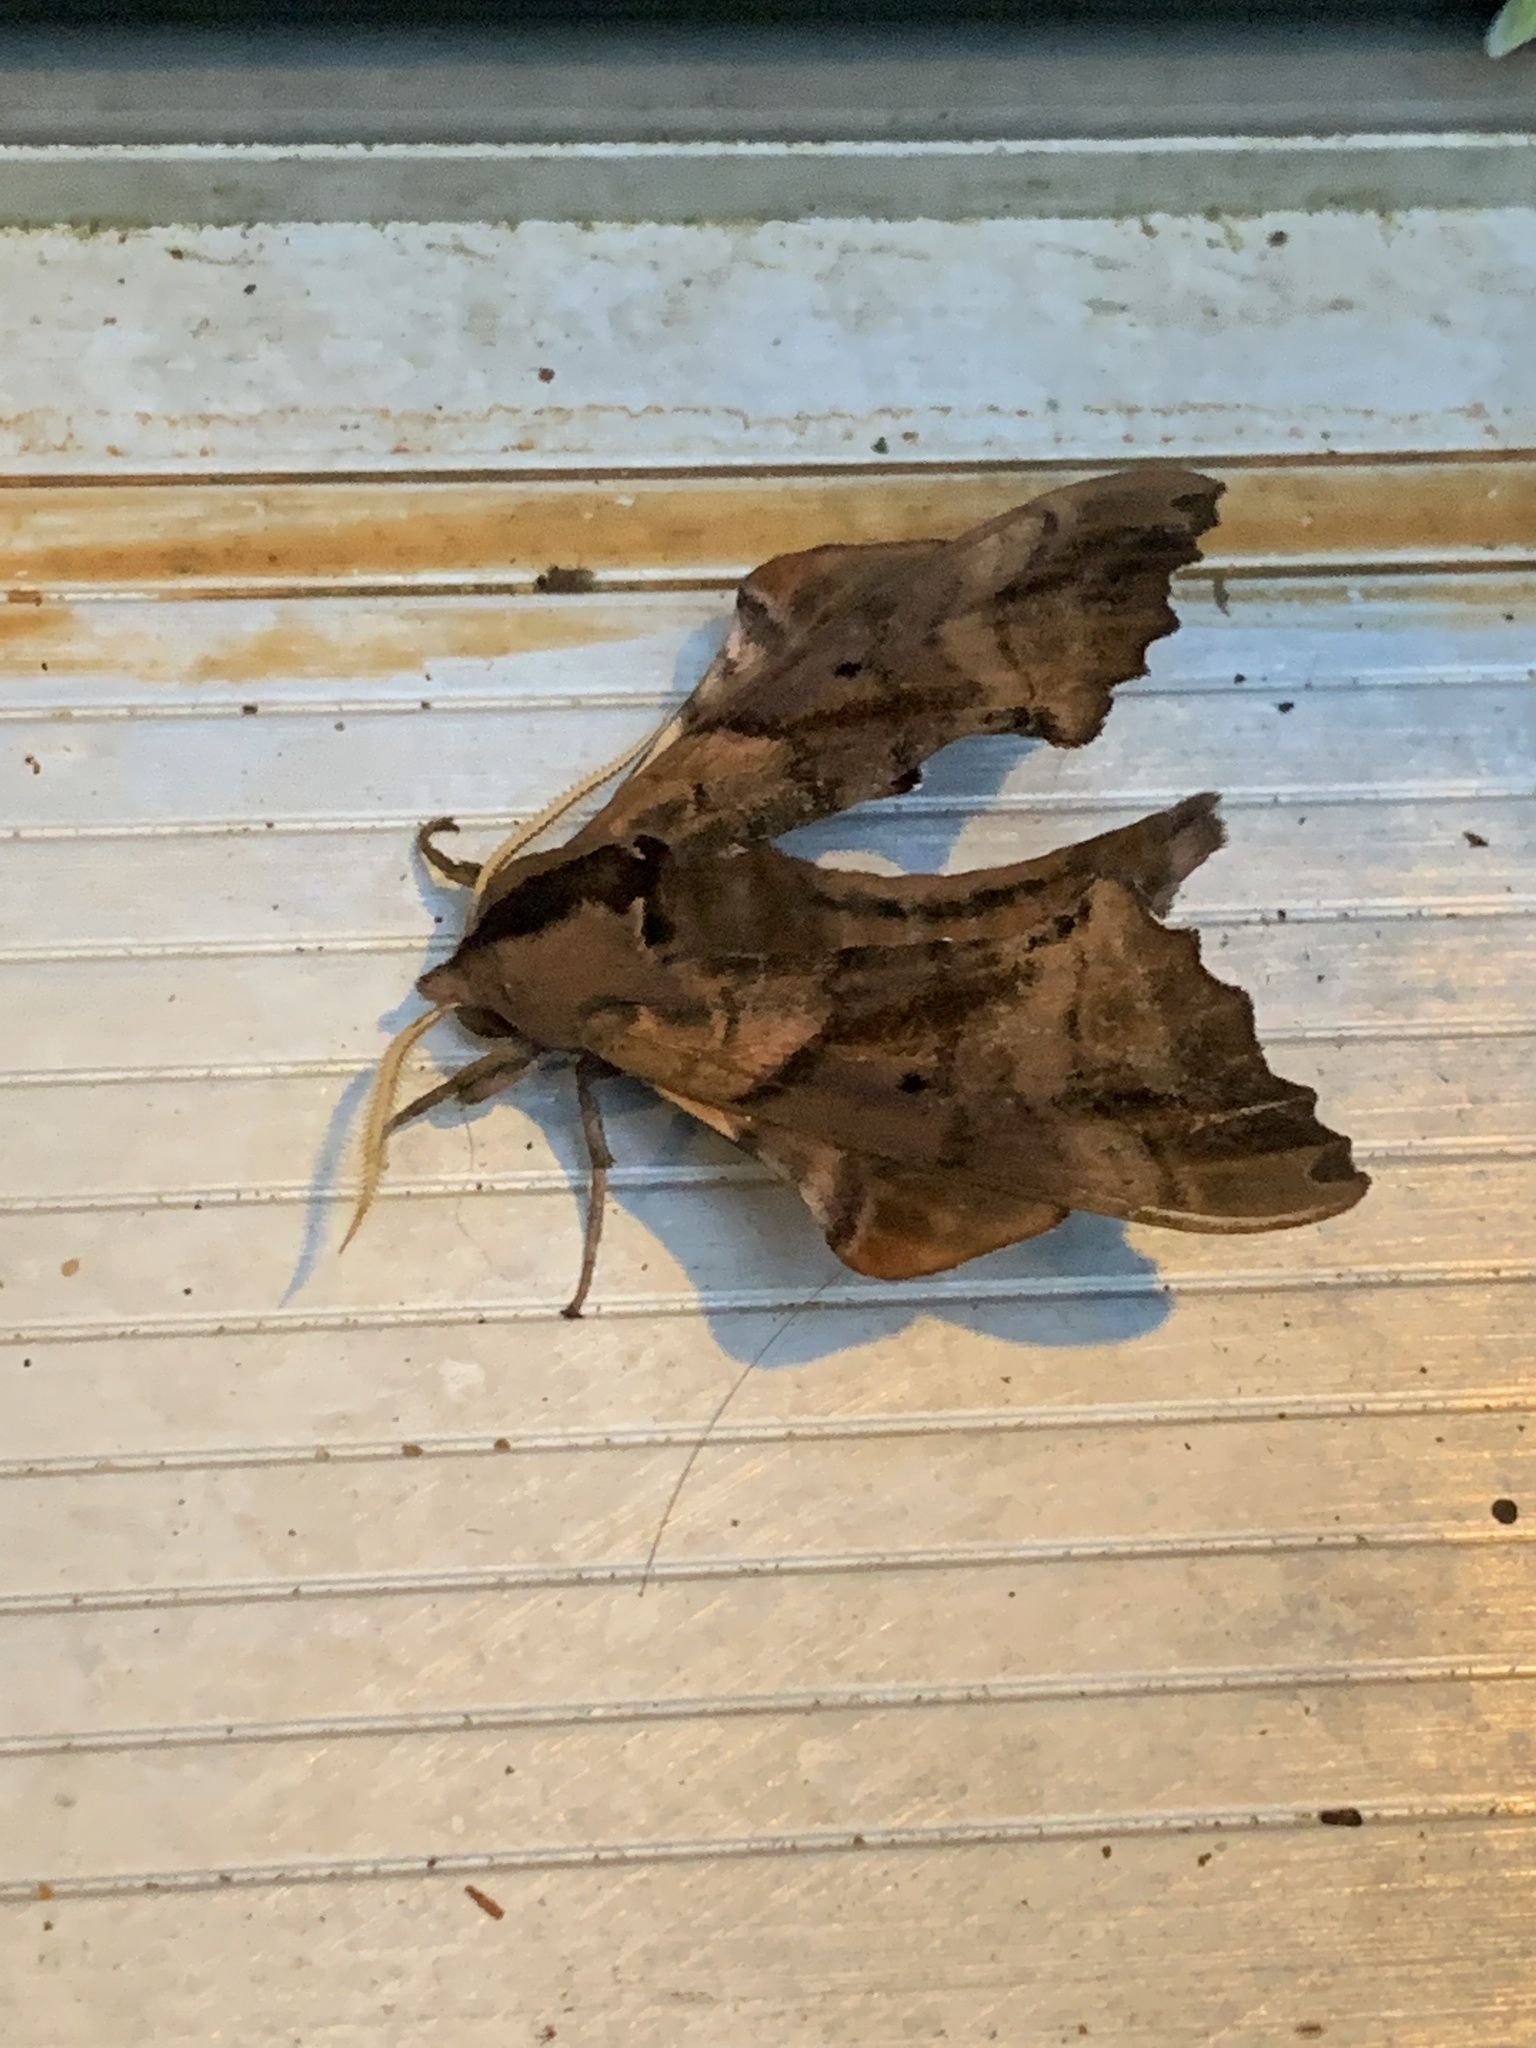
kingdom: Animalia
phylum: Arthropoda
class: Insecta
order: Lepidoptera
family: Sphingidae
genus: Paonias
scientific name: Paonias excaecata
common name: Blind-eyed sphinx
